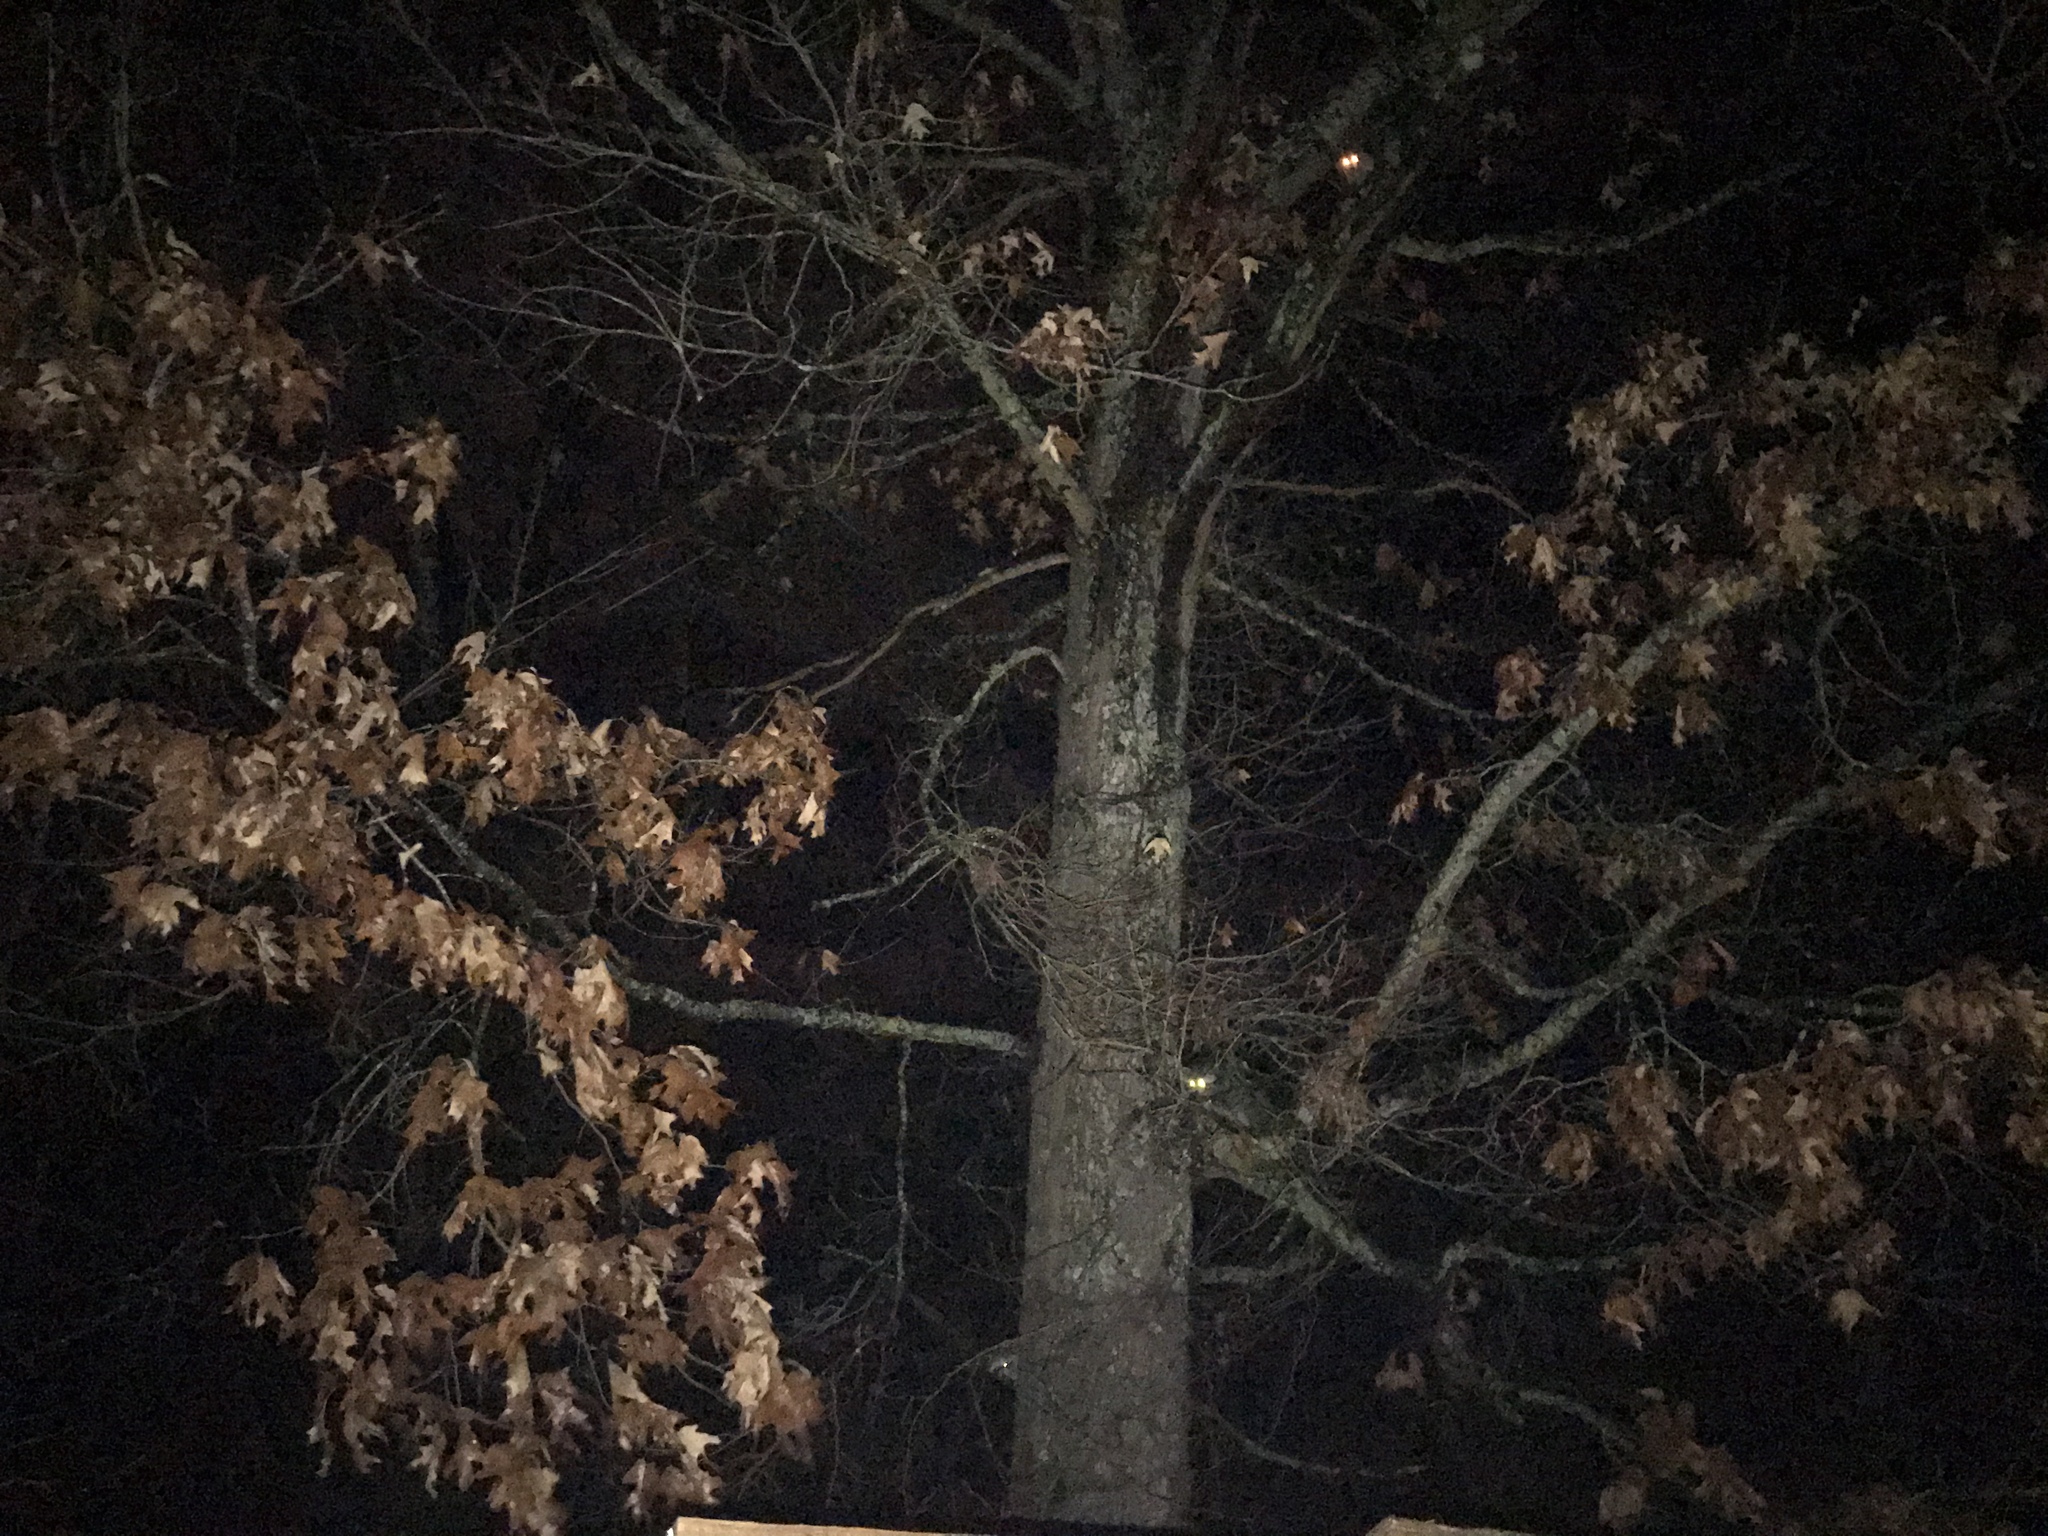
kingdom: Animalia
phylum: Chordata
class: Mammalia
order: Carnivora
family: Procyonidae
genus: Procyon
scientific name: Procyon lotor
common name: Raccoon
